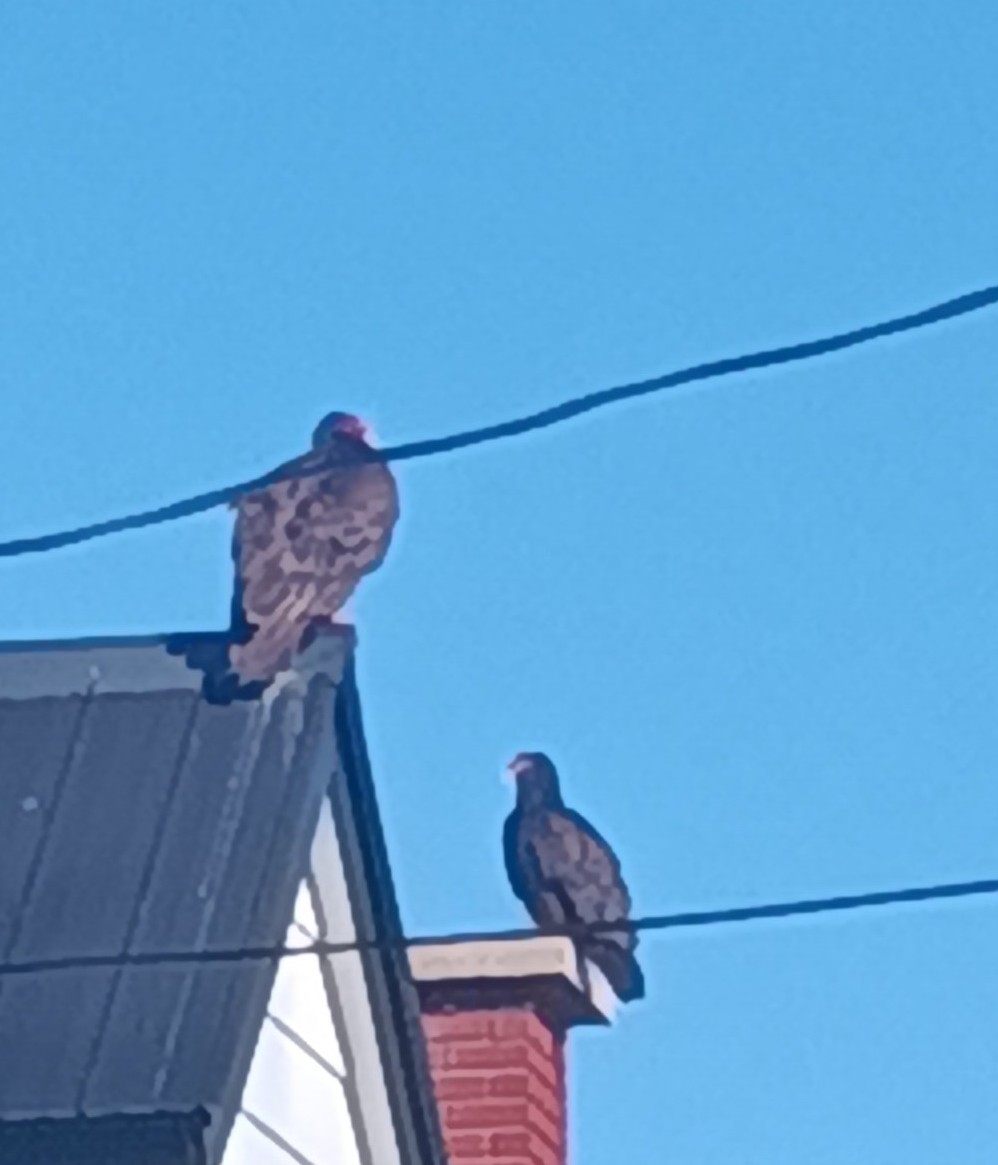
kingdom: Animalia
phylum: Chordata
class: Aves
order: Accipitriformes
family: Cathartidae
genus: Cathartes
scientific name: Cathartes aura
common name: Turkey vulture
